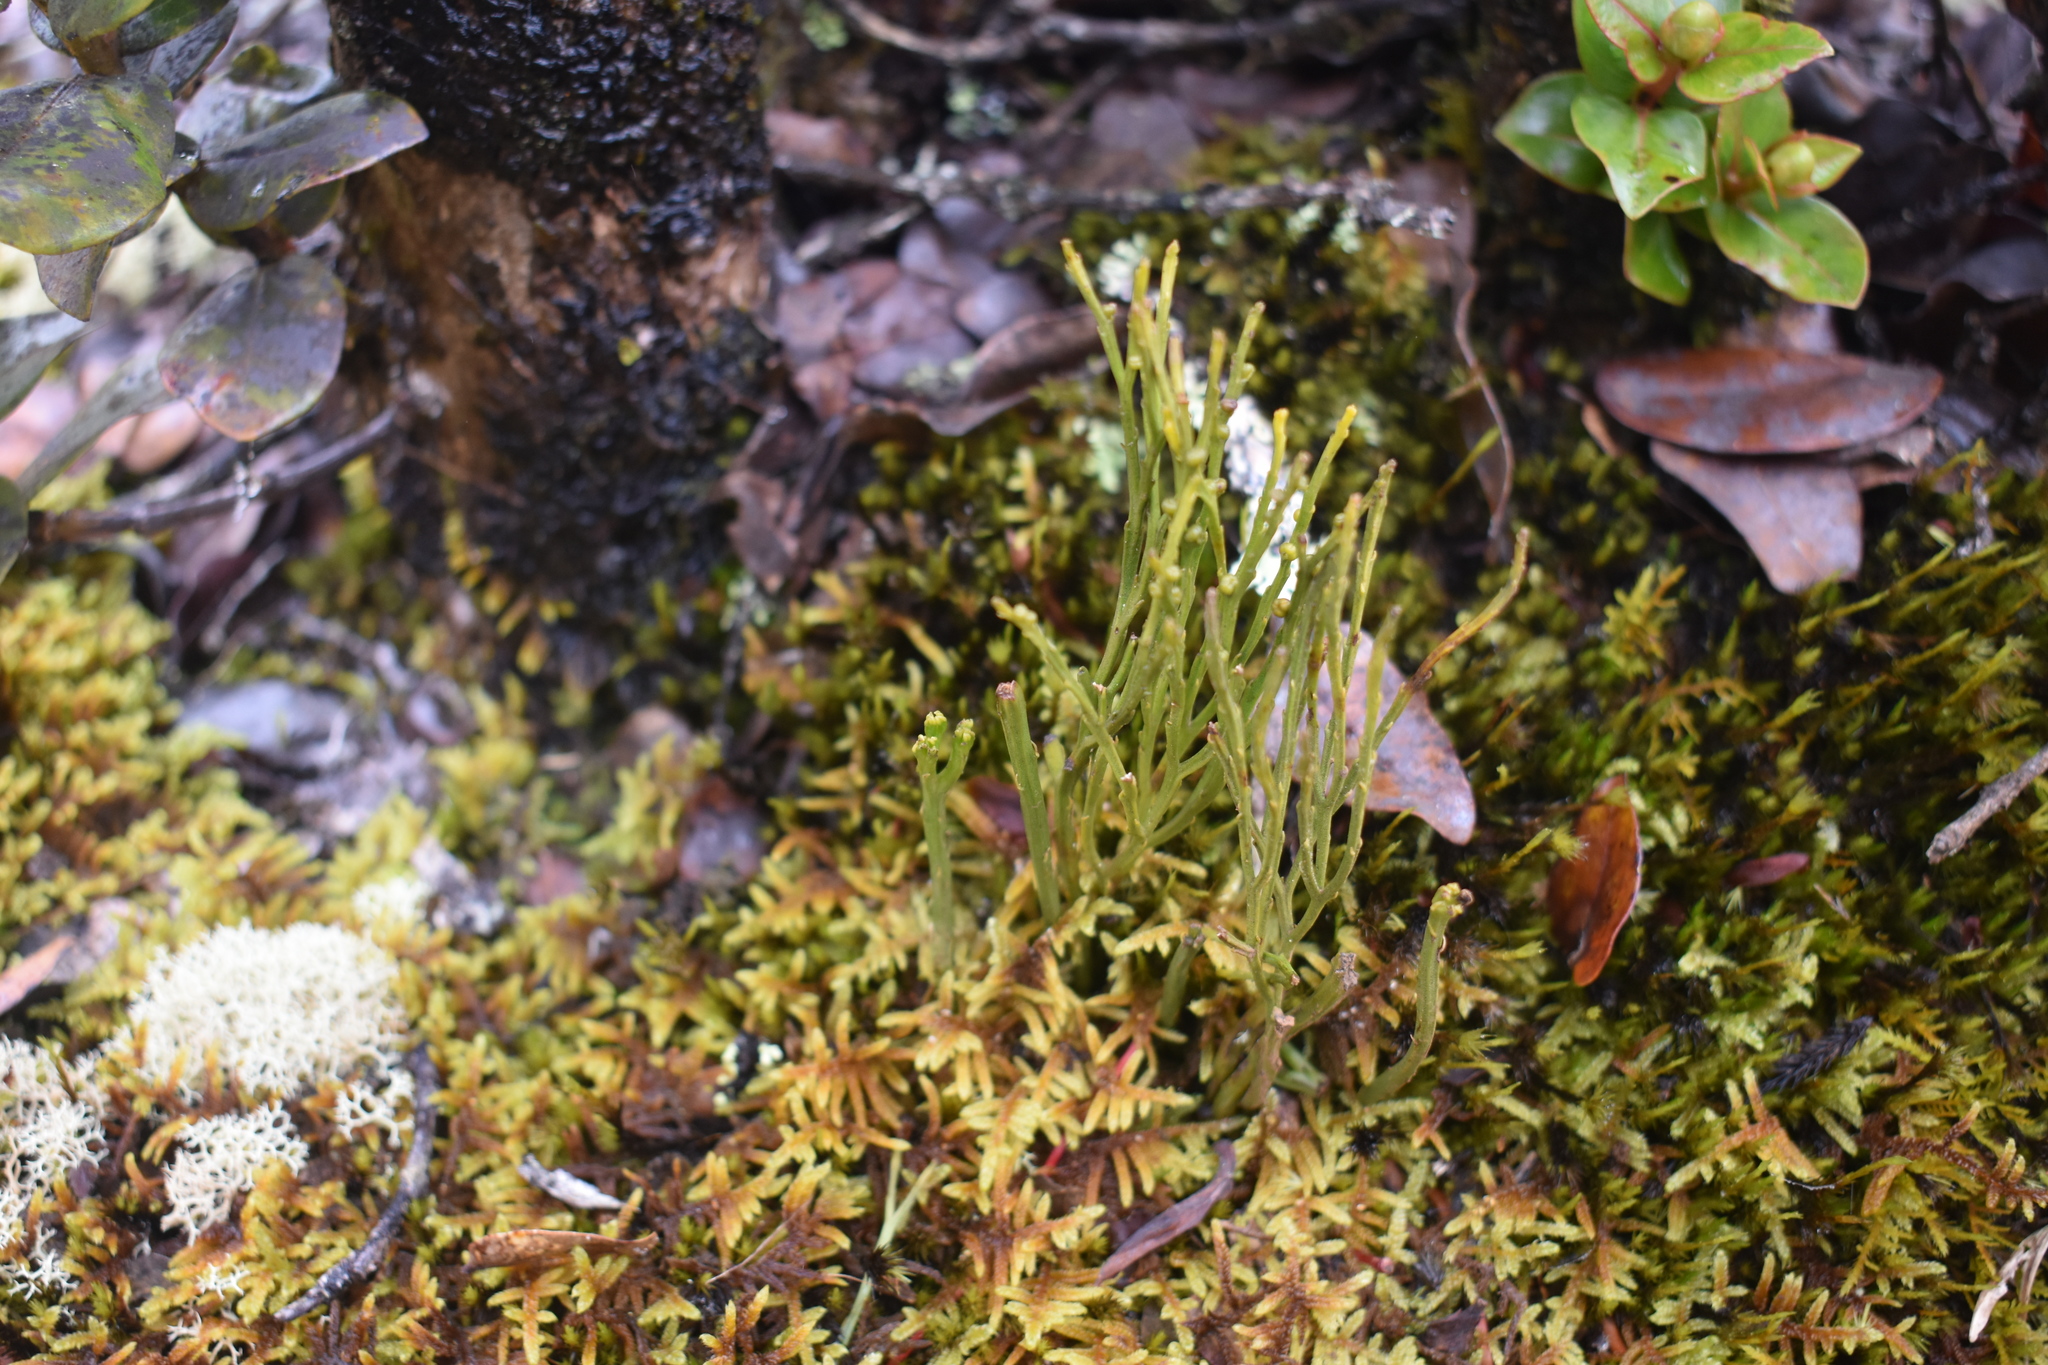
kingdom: Plantae
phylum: Tracheophyta
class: Polypodiopsida
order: Psilotales
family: Psilotaceae
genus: Psilotum
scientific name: Psilotum nudum
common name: Skeleton fork fern
